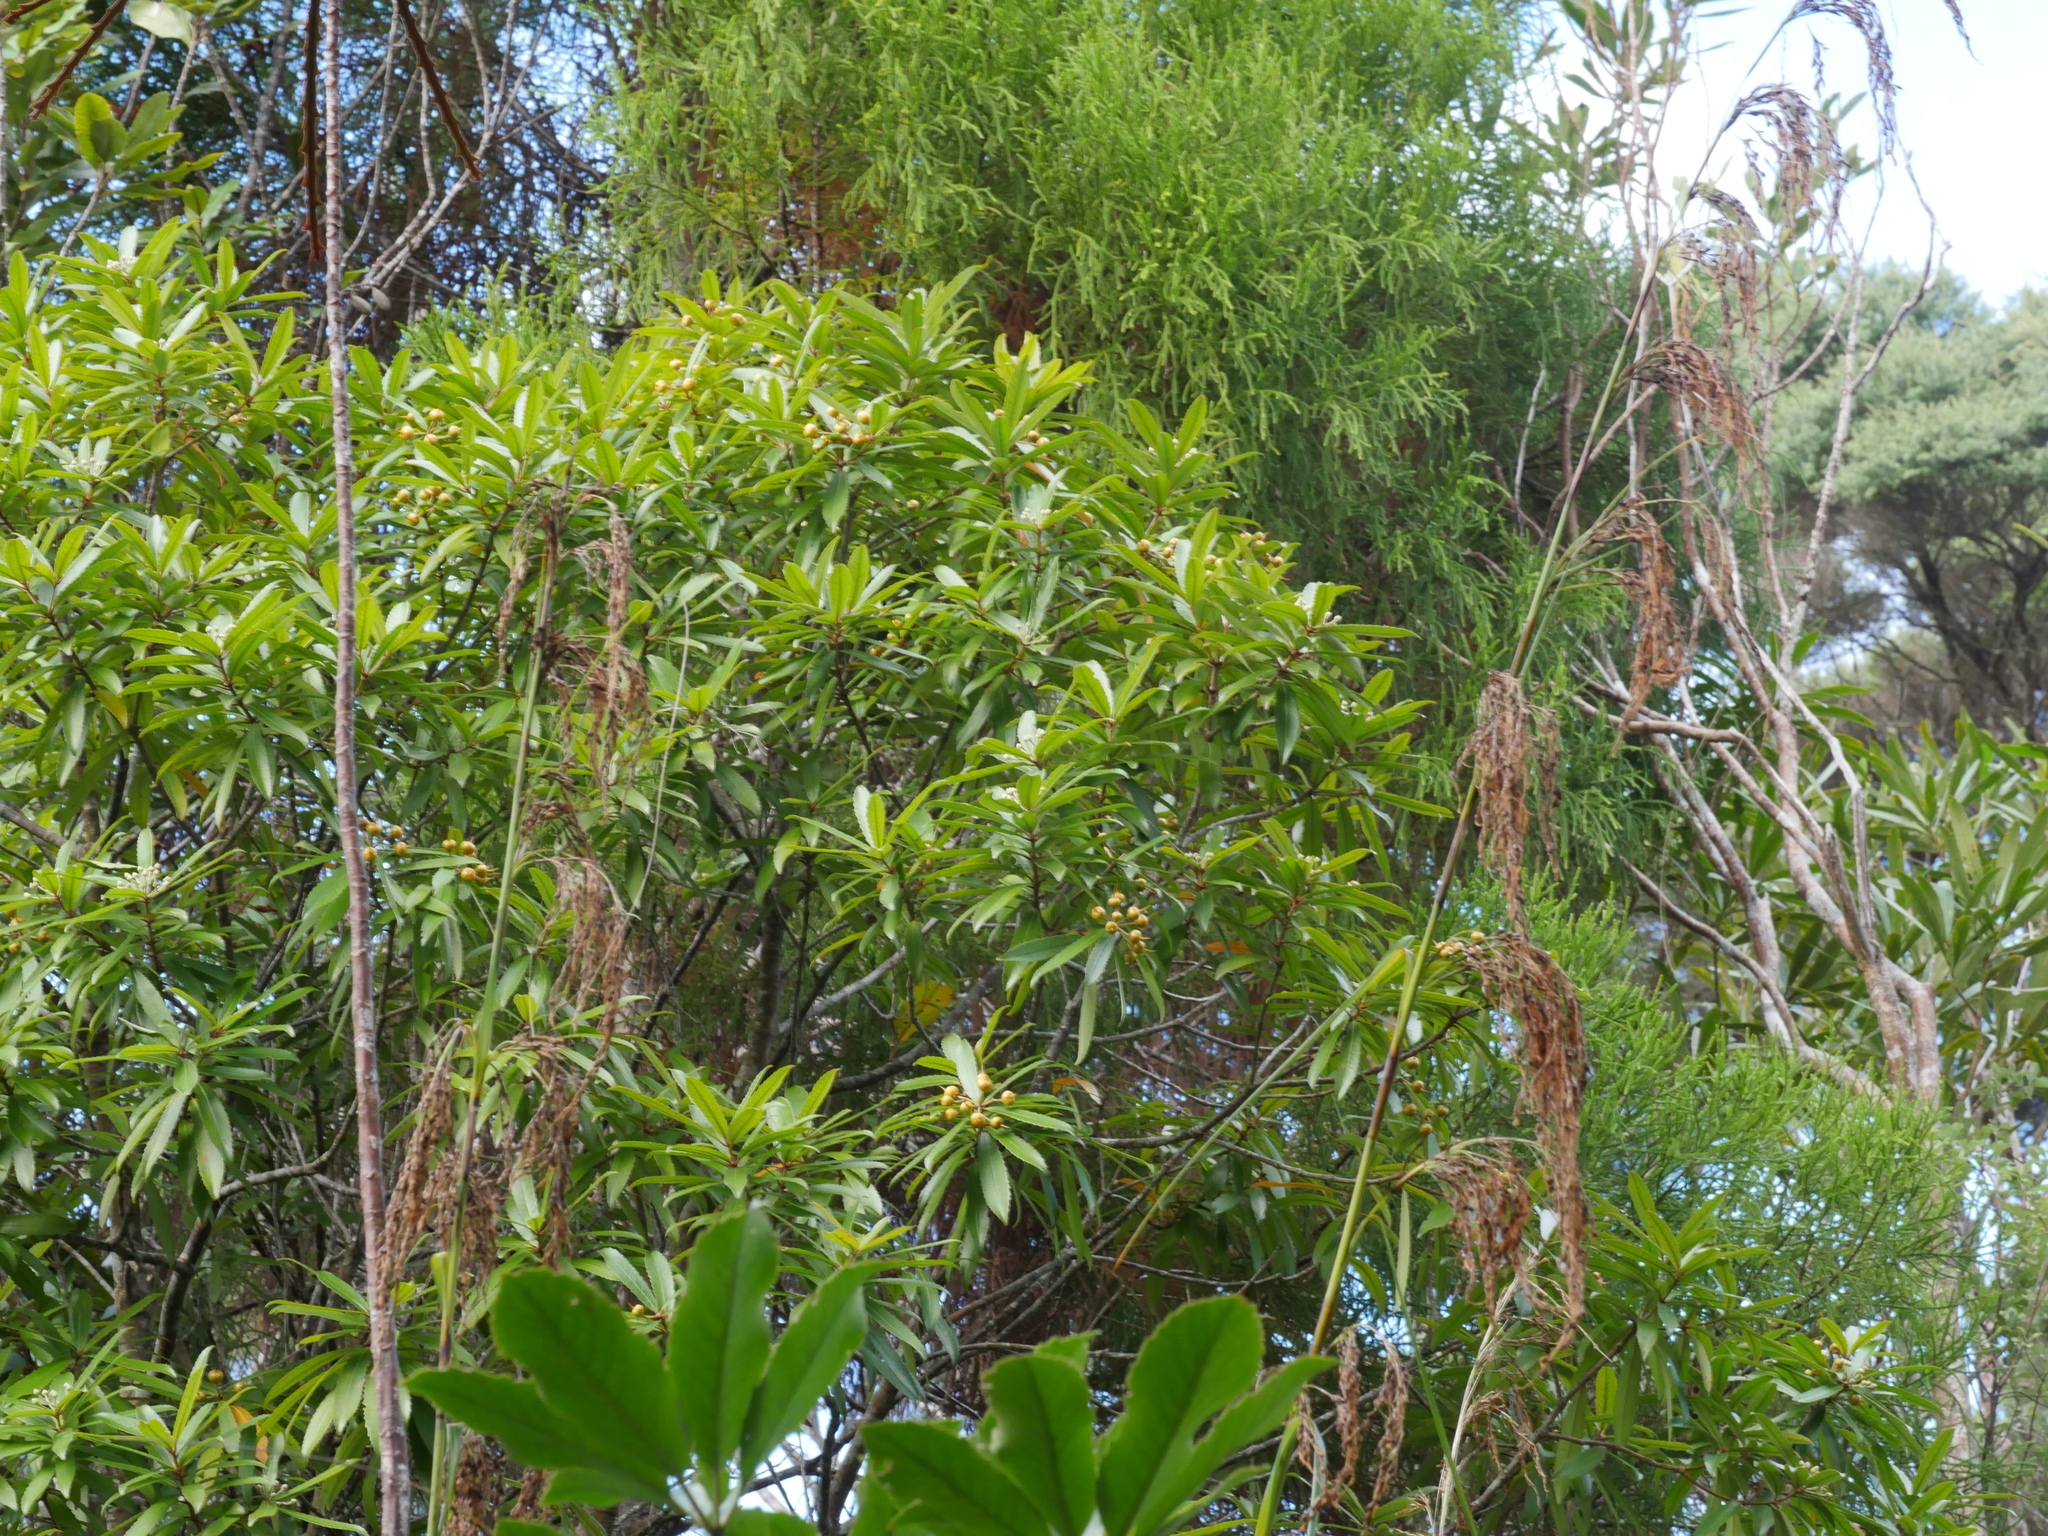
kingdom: Plantae
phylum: Tracheophyta
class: Magnoliopsida
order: Crossosomatales
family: Ixerbaceae
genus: Ixerba
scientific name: Ixerba brexioides
